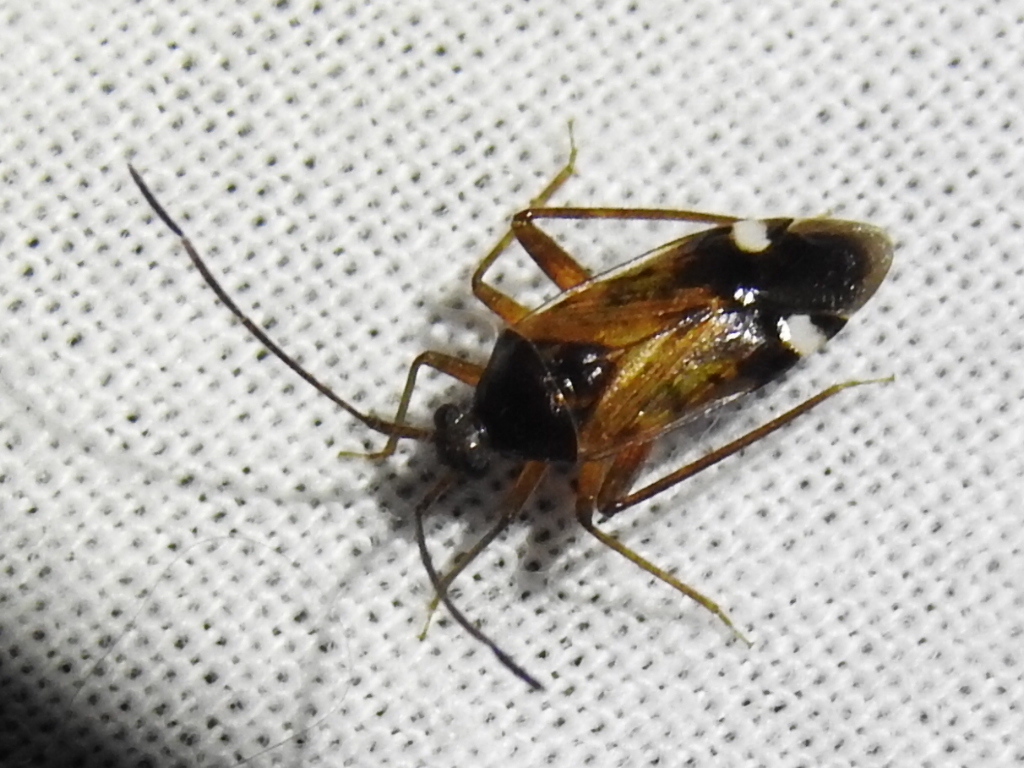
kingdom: Animalia
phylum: Arthropoda
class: Insecta
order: Hemiptera
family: Miridae
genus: Eustictus
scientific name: Eustictus albomaculatus
